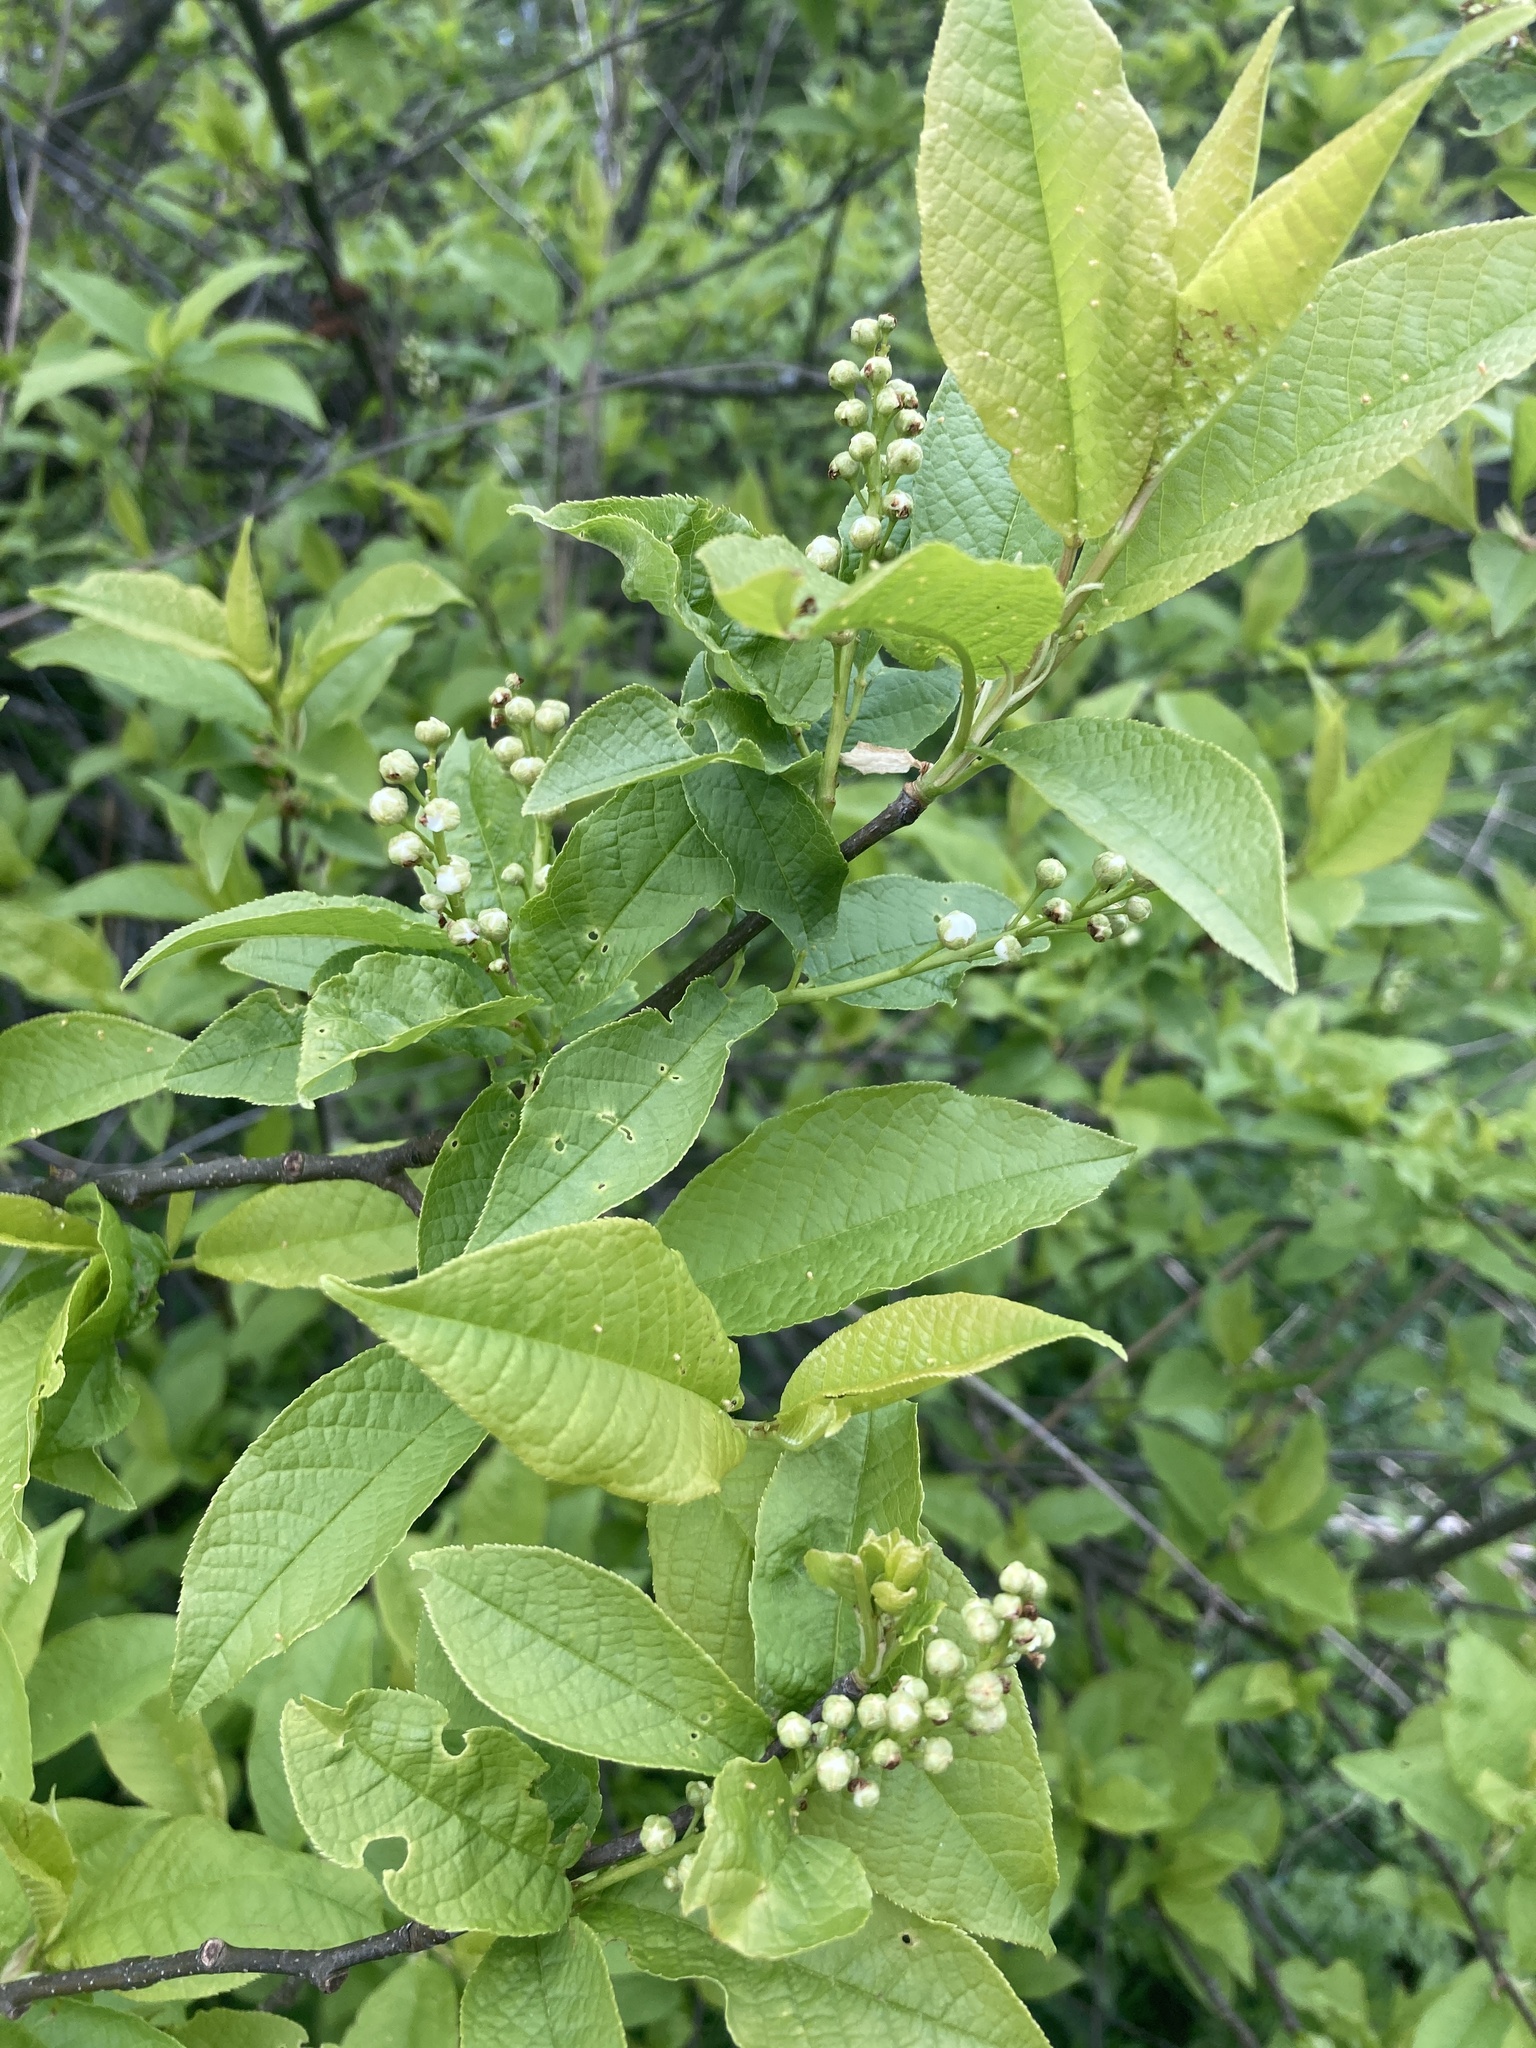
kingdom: Plantae
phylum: Tracheophyta
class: Magnoliopsida
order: Rosales
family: Rosaceae
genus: Prunus
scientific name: Prunus padus
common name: Bird cherry
